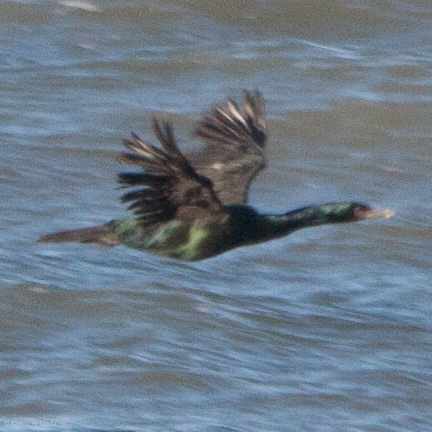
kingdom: Animalia
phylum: Chordata
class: Aves
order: Suliformes
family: Phalacrocoracidae
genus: Phalacrocorax
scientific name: Phalacrocorax pelagicus
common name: Pelagic cormorant
